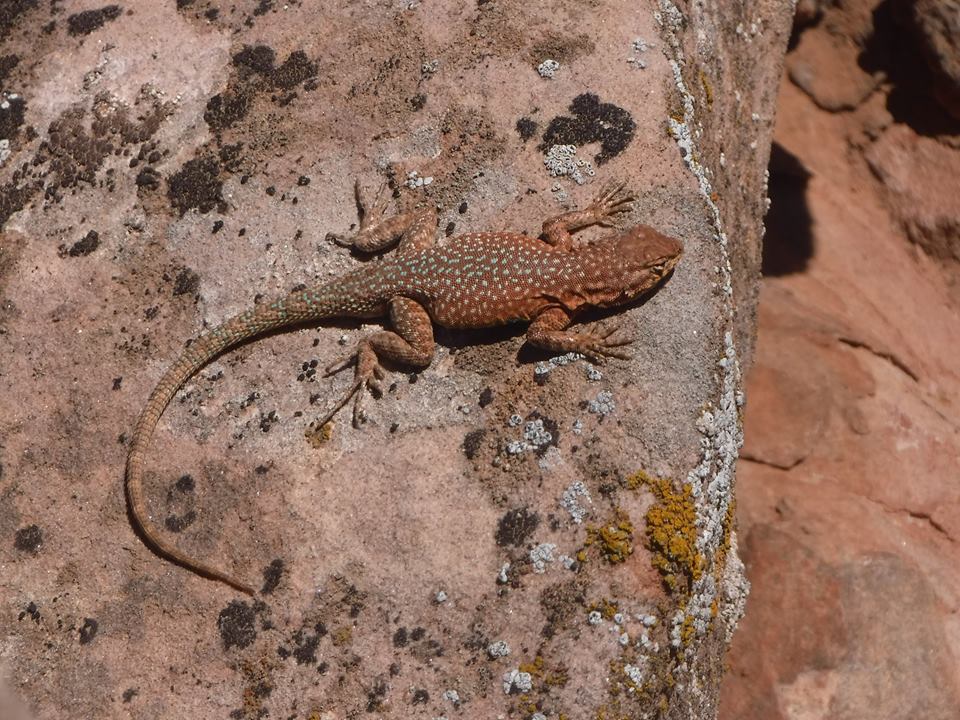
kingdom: Animalia
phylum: Chordata
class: Squamata
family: Phrynosomatidae
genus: Uta
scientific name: Uta stansburiana
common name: Side-blotched lizard
